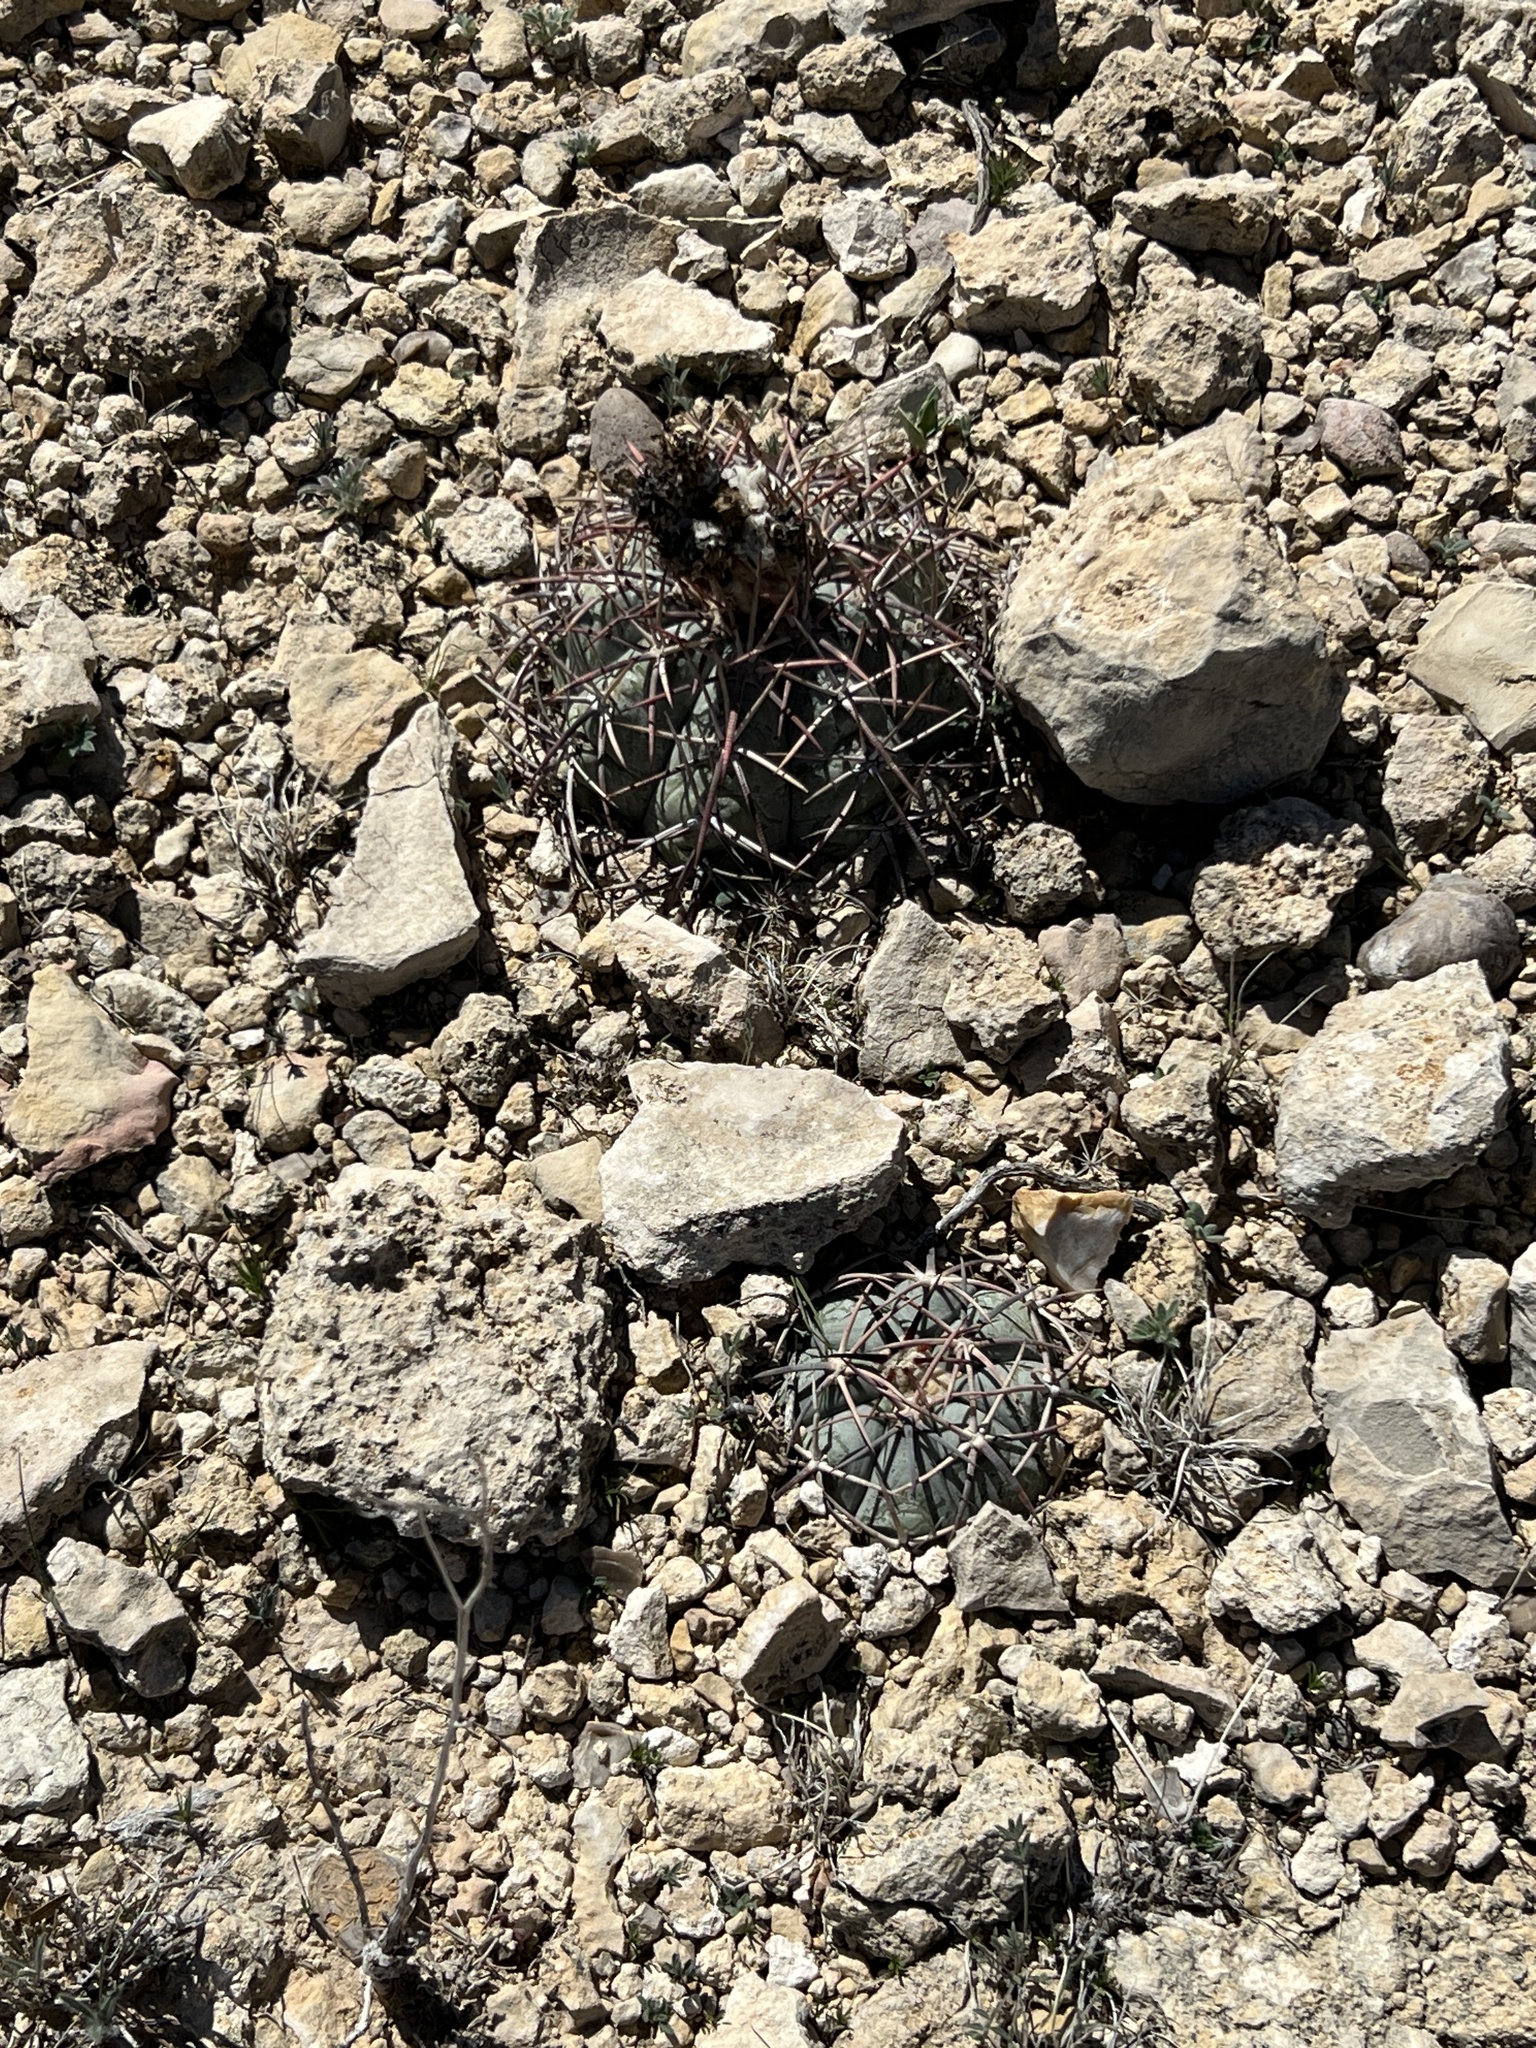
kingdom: Plantae
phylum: Tracheophyta
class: Magnoliopsida
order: Caryophyllales
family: Cactaceae
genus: Echinocactus
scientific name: Echinocactus horizonthalonius
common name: Devilshead
